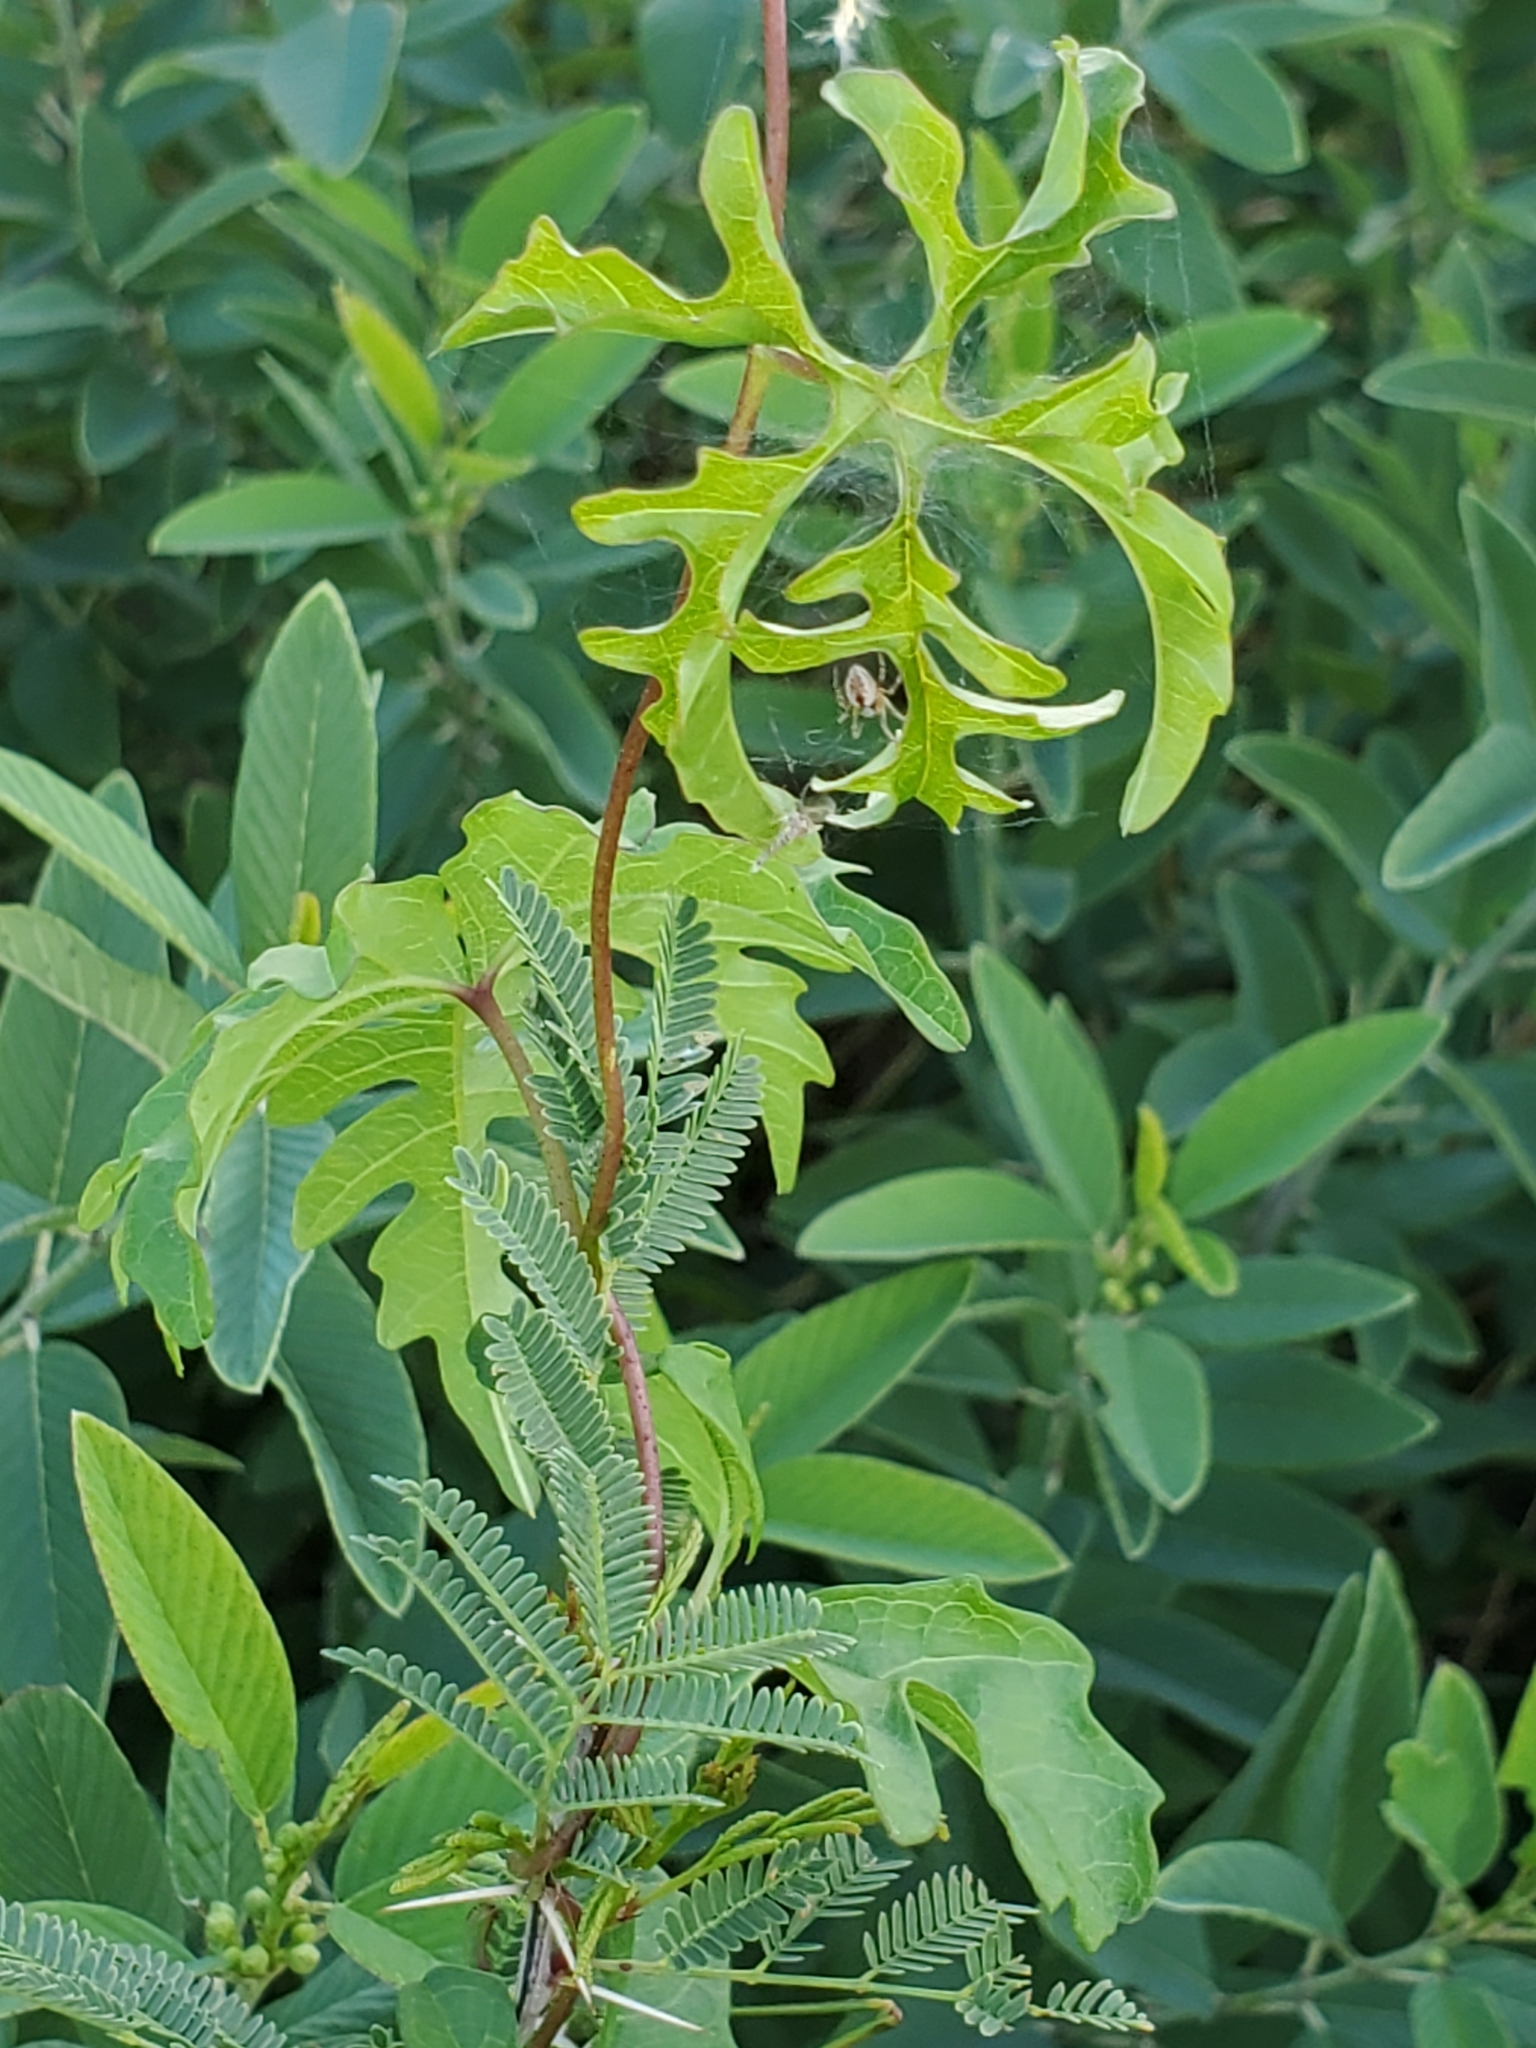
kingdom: Plantae
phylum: Tracheophyta
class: Magnoliopsida
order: Solanales
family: Convolvulaceae
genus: Distimake
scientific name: Distimake dissectus
